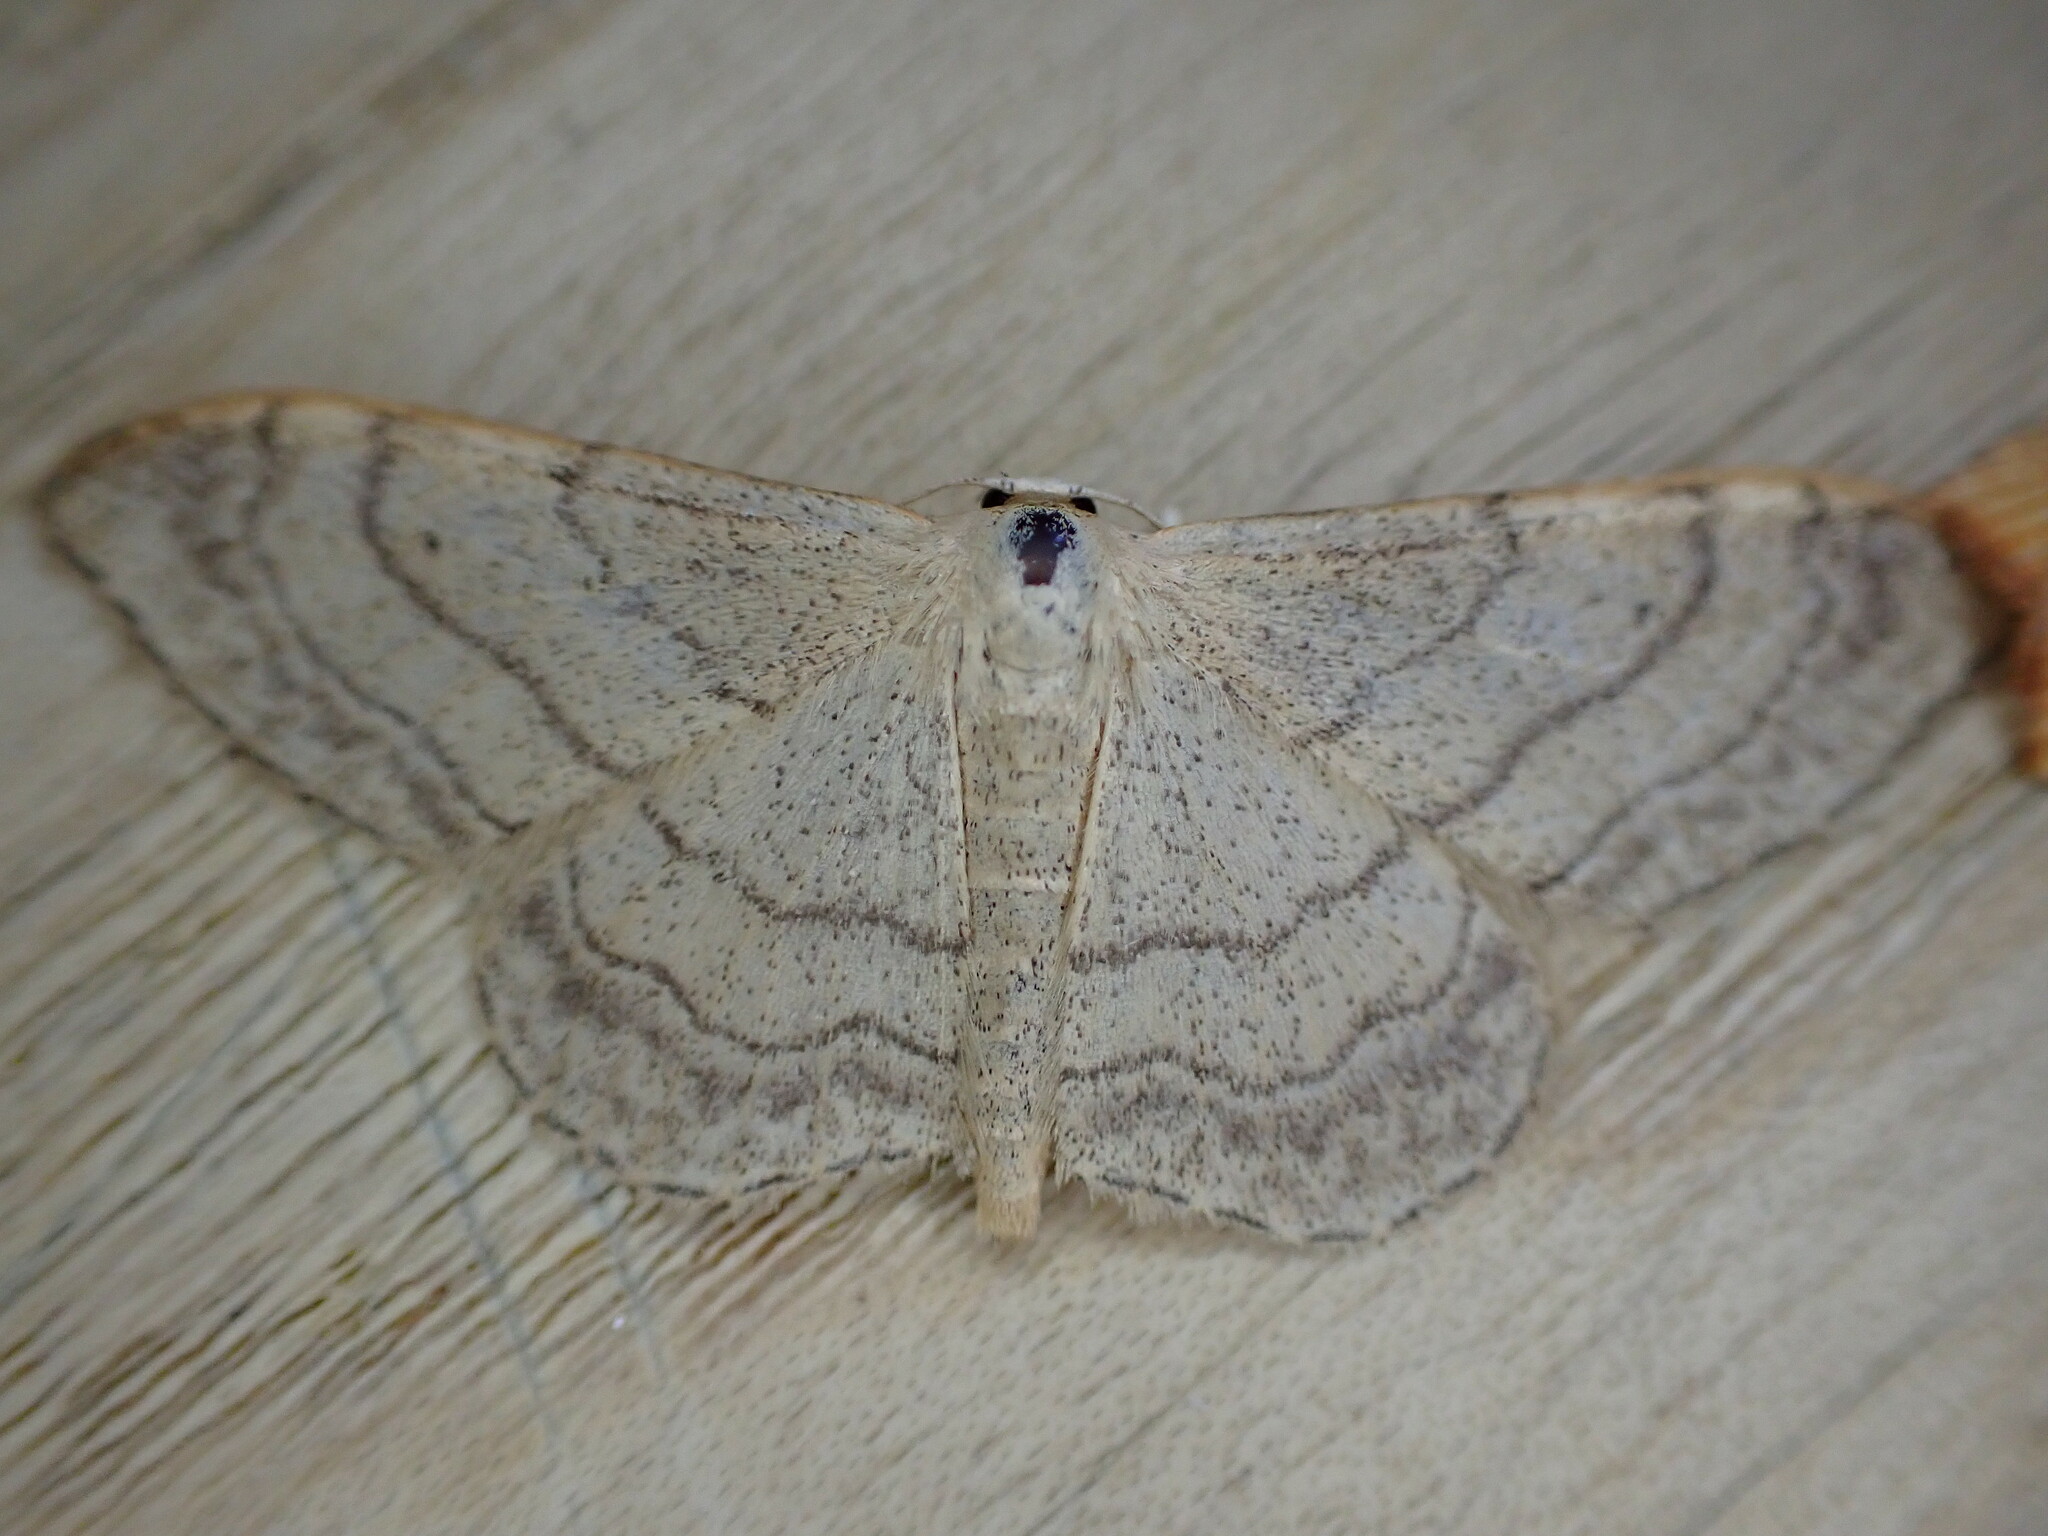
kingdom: Animalia
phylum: Arthropoda
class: Insecta
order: Lepidoptera
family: Geometridae
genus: Idaea
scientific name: Idaea aversata
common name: Riband wave
